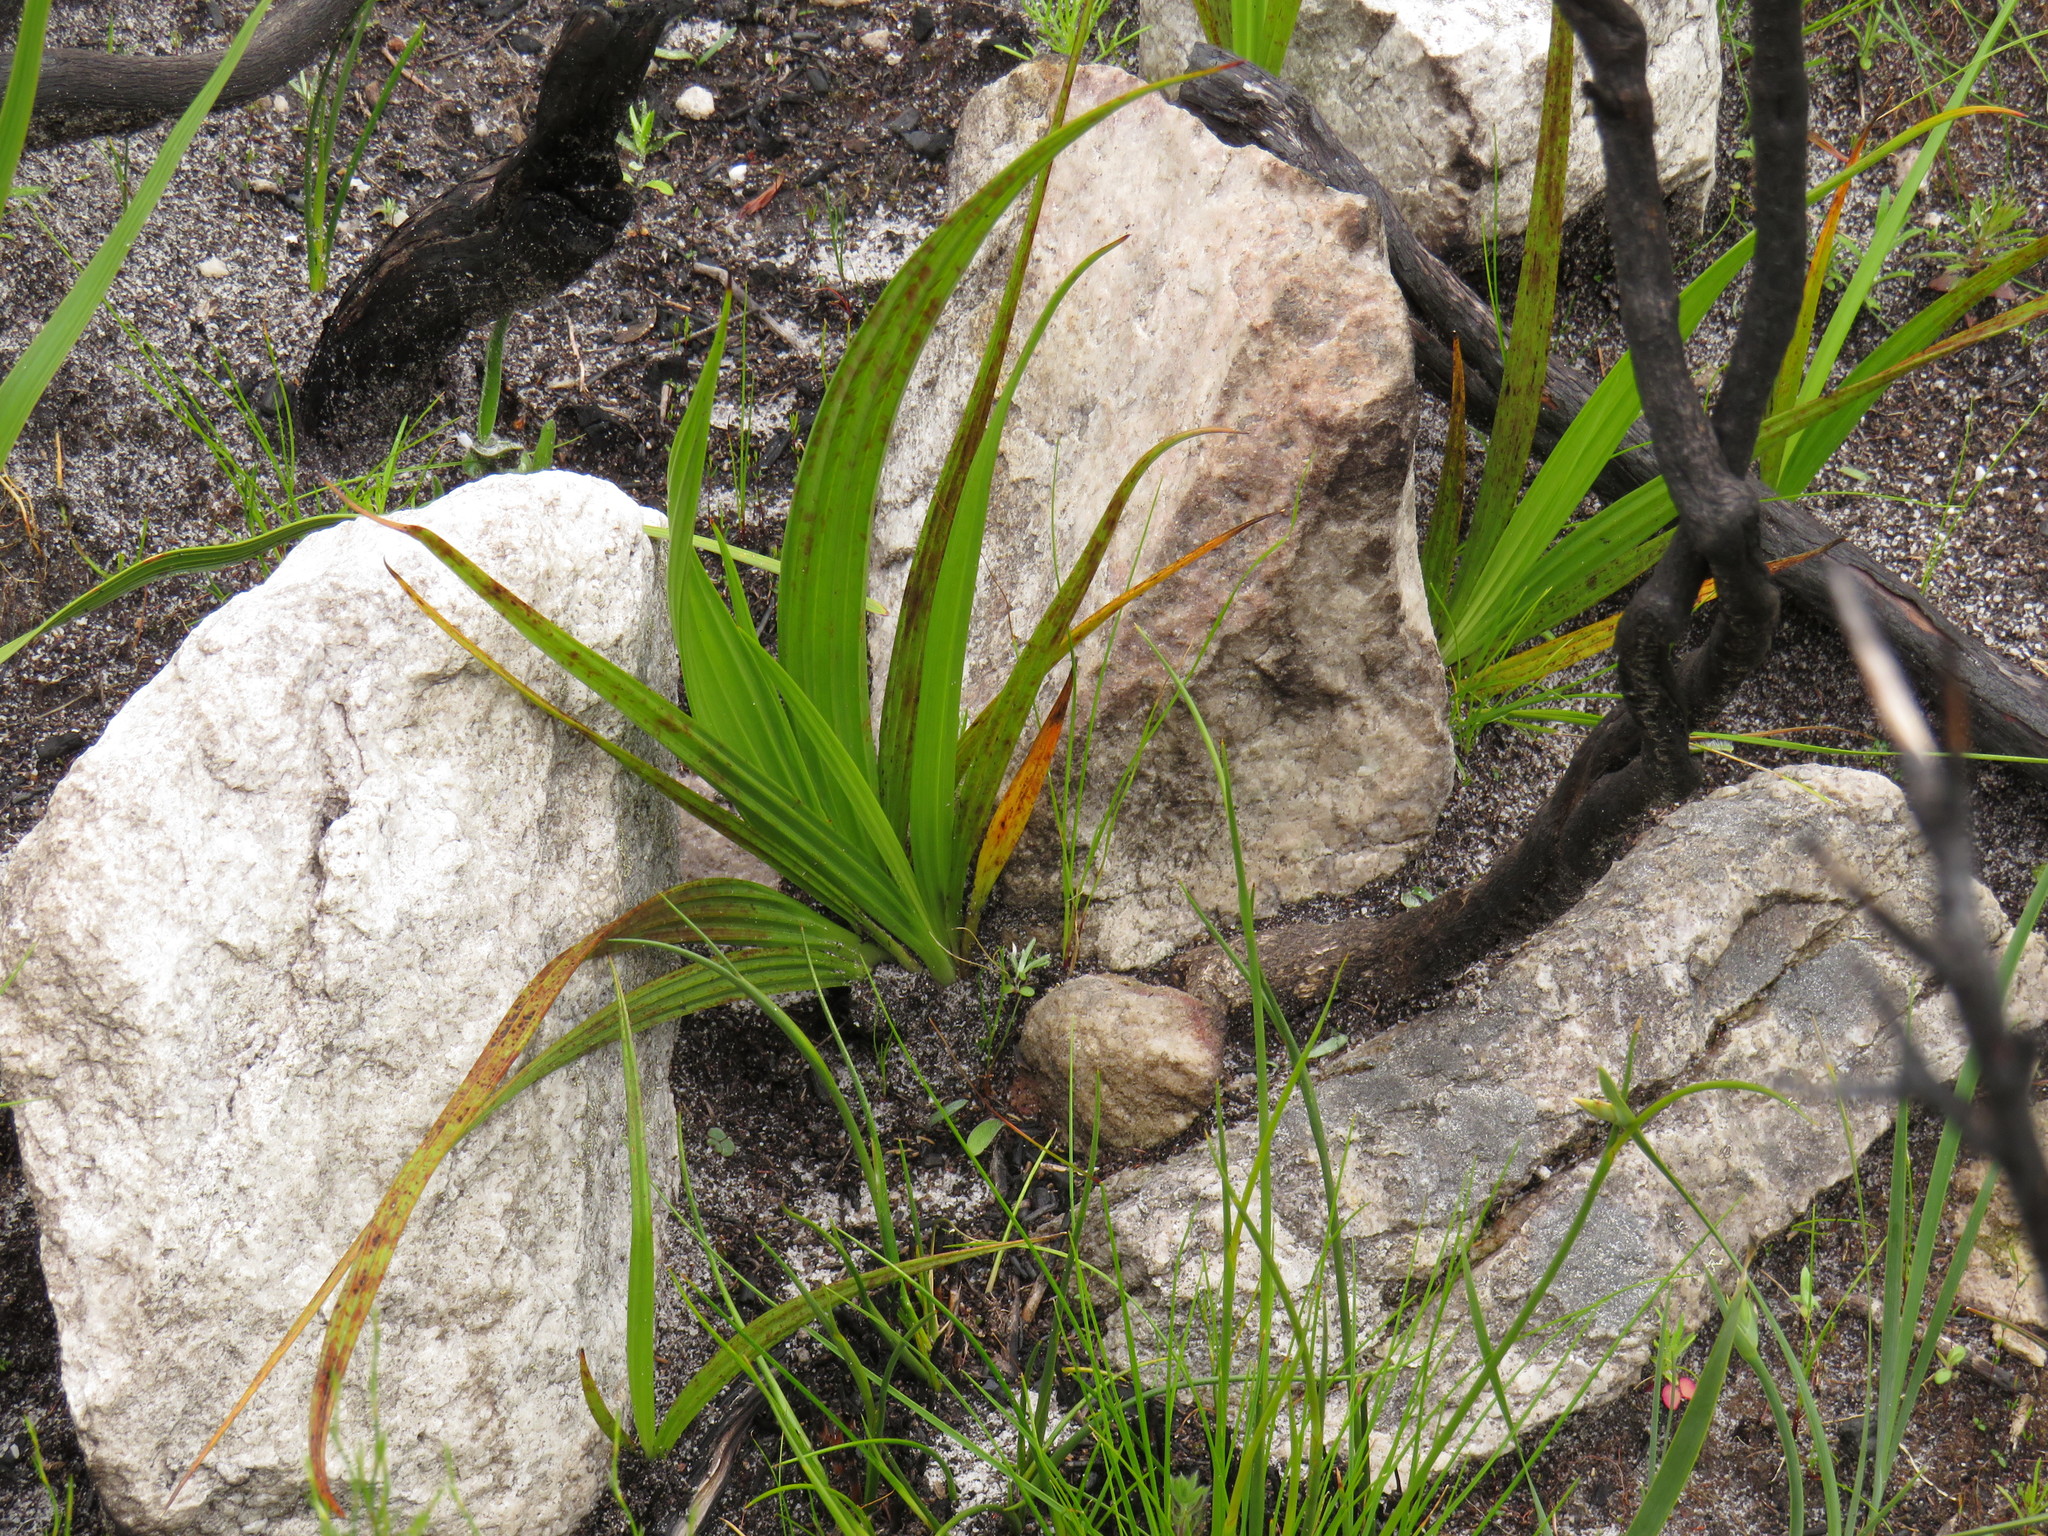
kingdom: Plantae
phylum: Tracheophyta
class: Liliopsida
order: Commelinales
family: Haemodoraceae
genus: Wachendorfia
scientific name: Wachendorfia thyrsiflora
